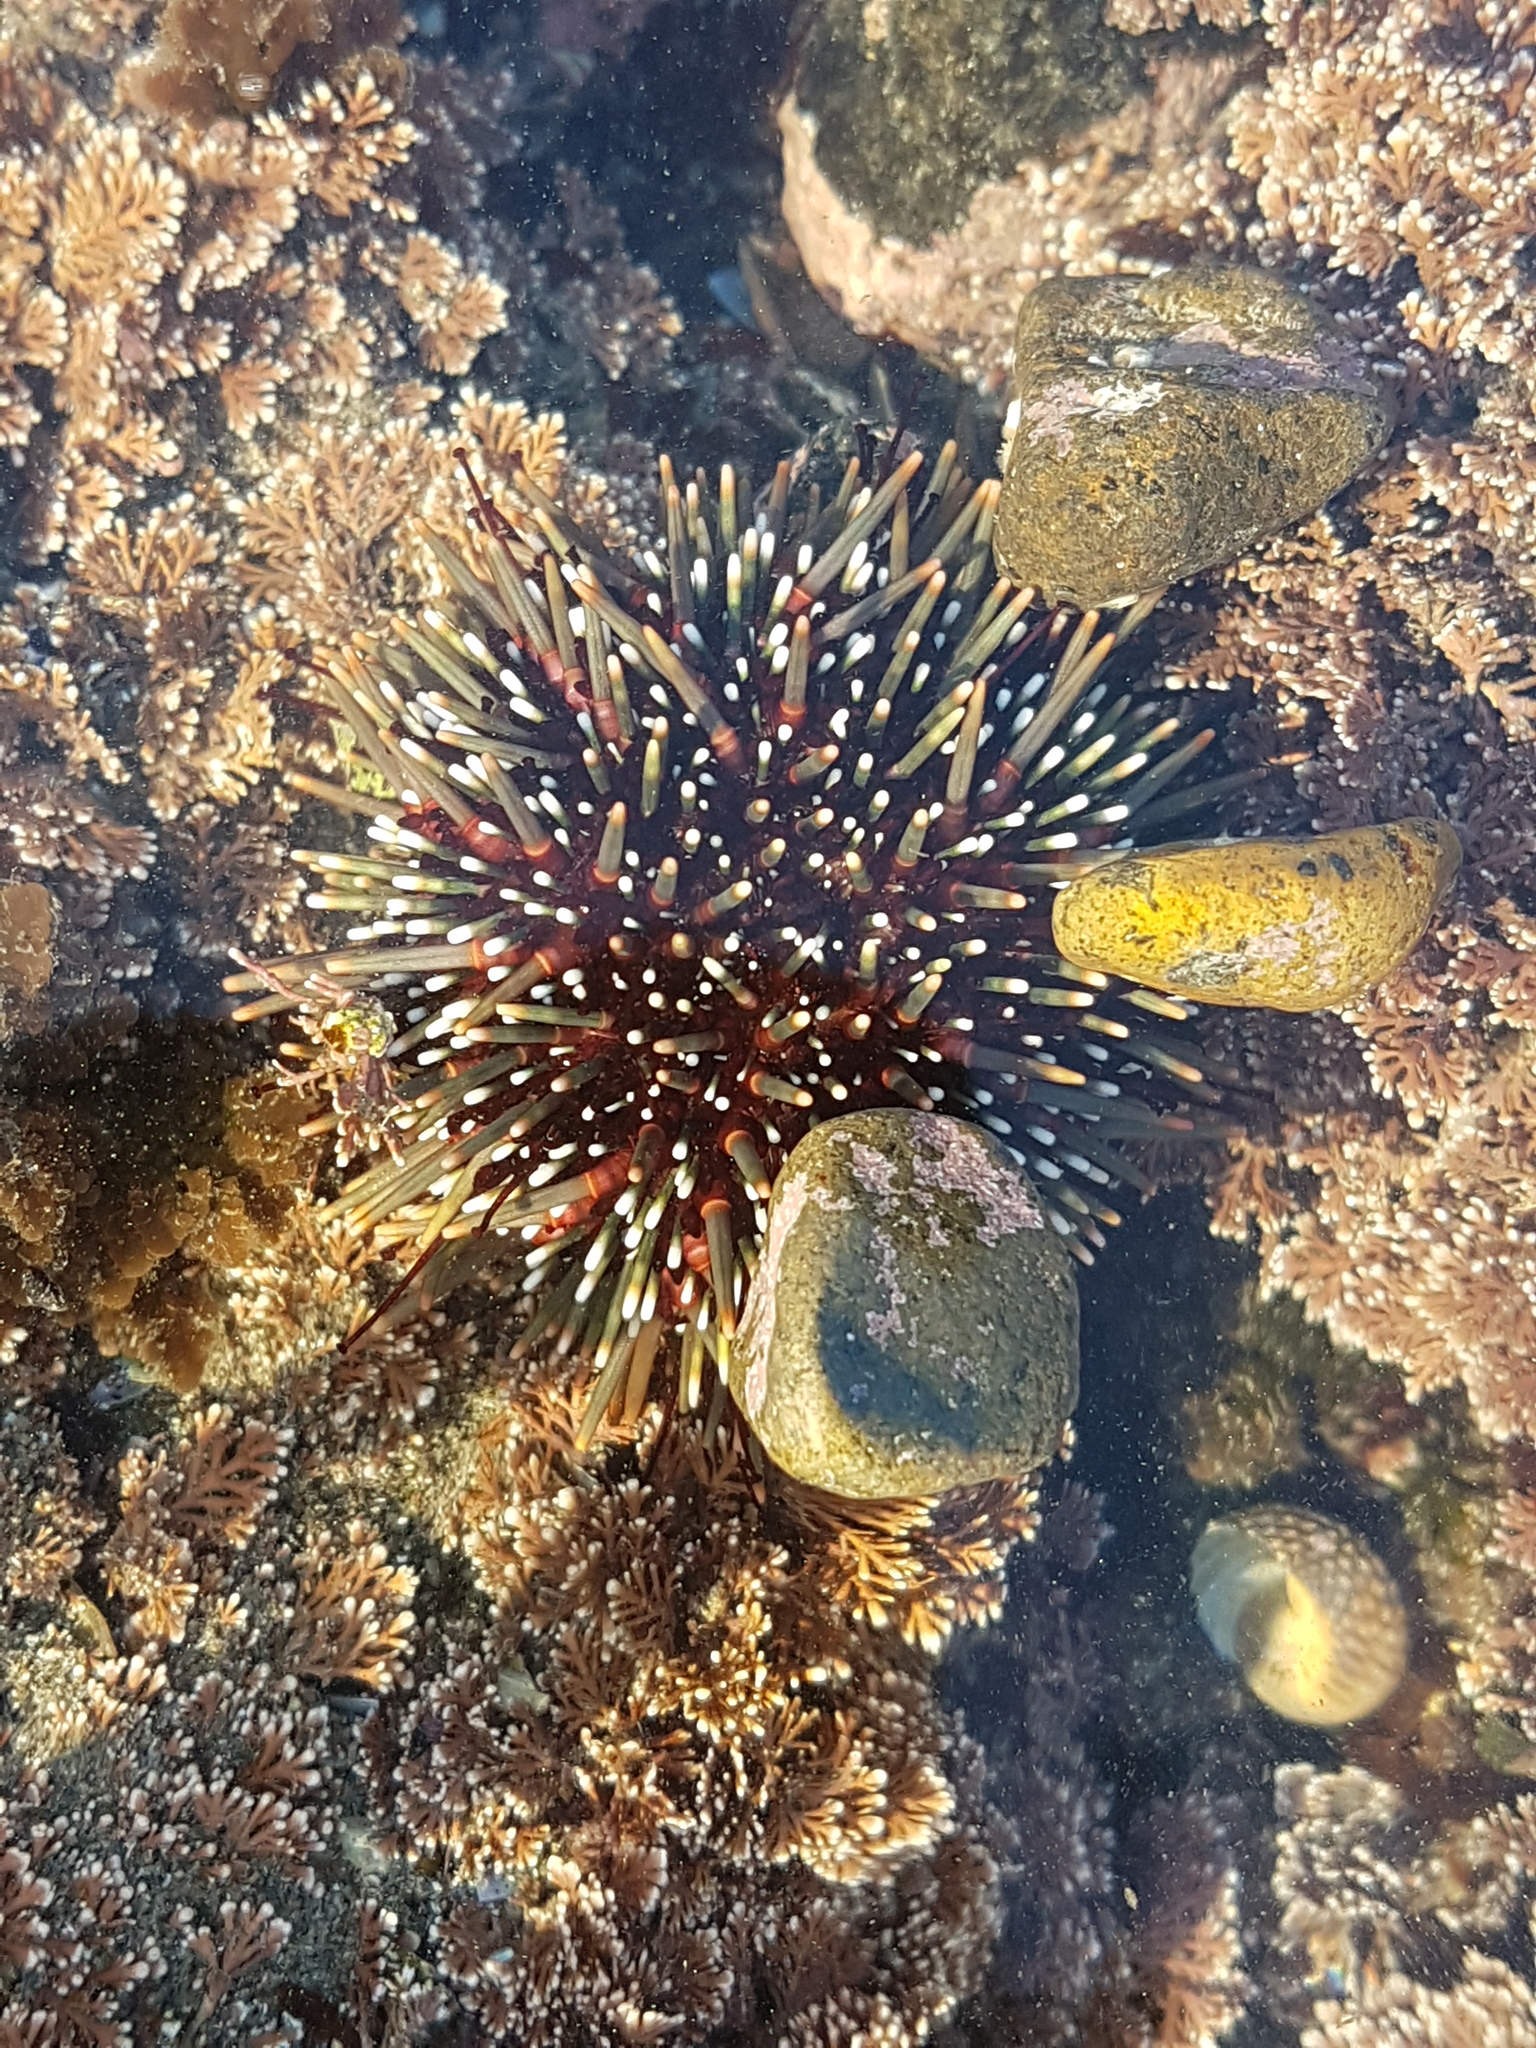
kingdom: Animalia
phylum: Echinodermata
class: Echinoidea
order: Camarodonta
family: Echinometridae
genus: Evechinus
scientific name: Evechinus chloroticus
